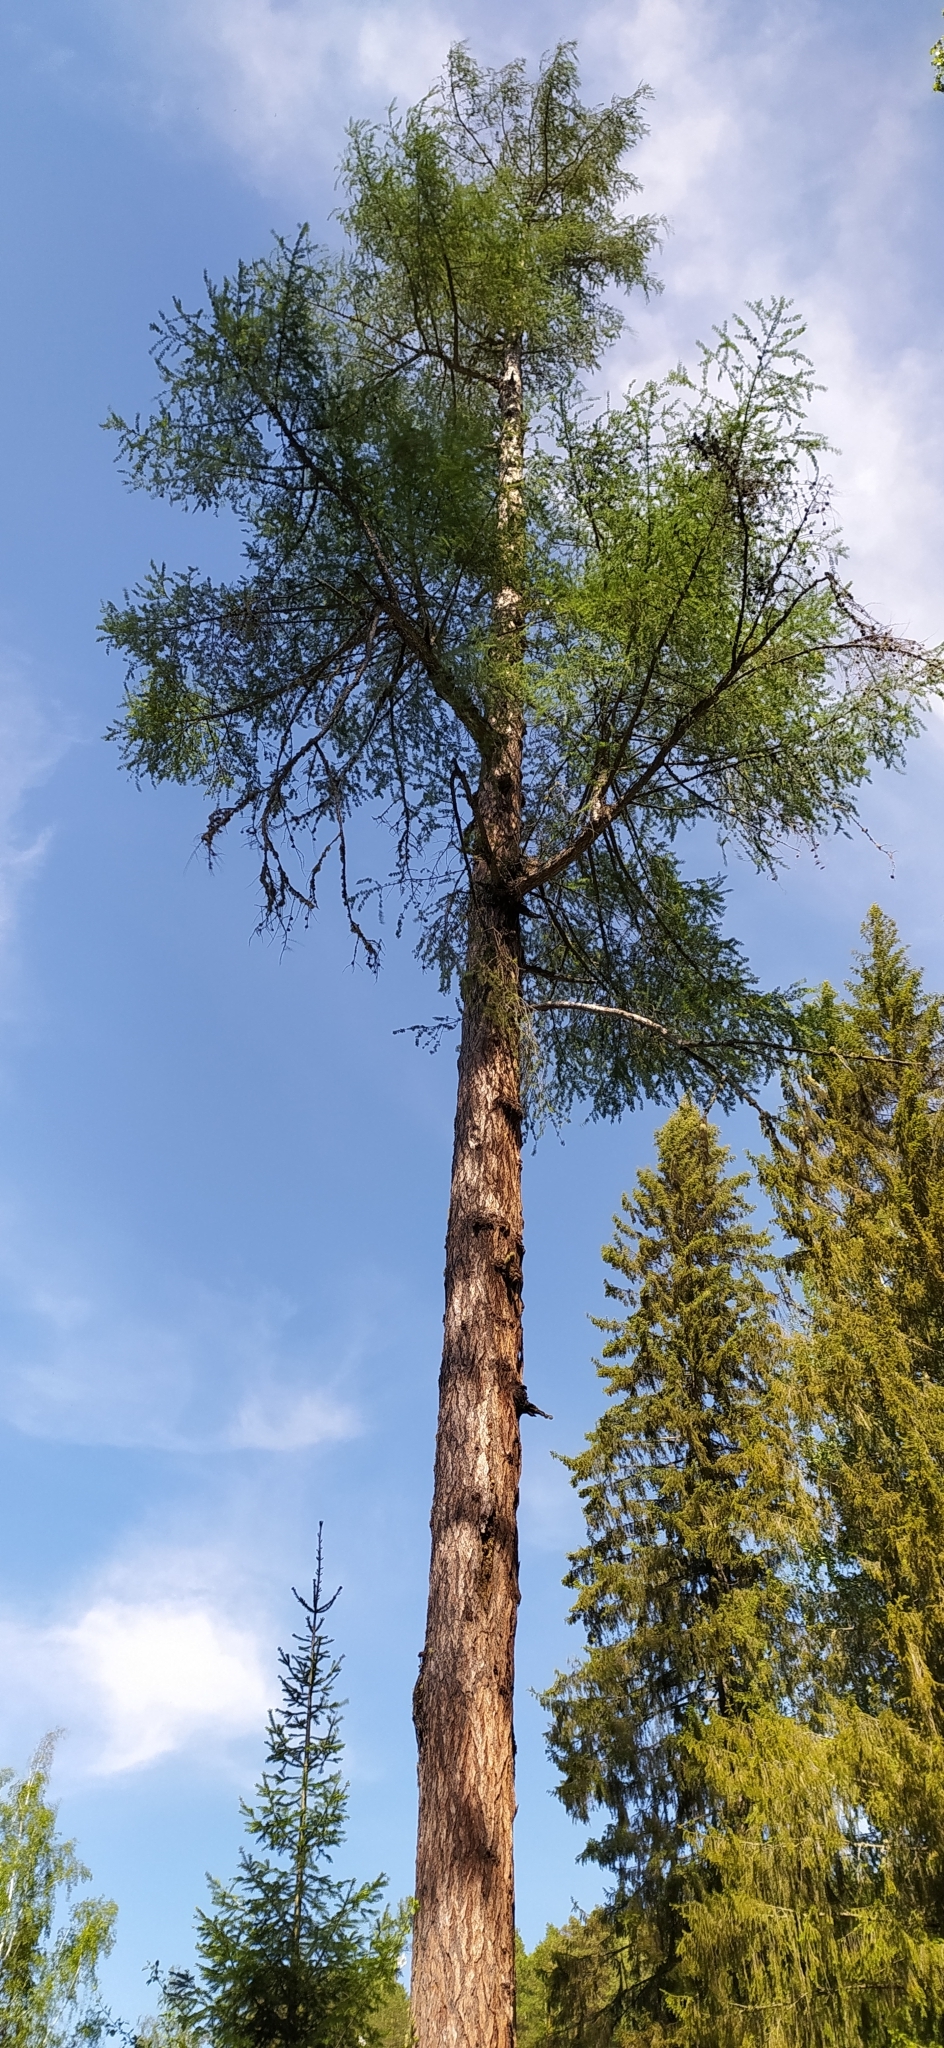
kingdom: Plantae
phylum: Tracheophyta
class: Pinopsida
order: Pinales
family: Pinaceae
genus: Larix
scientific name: Larix sibirica
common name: Siberian larch
